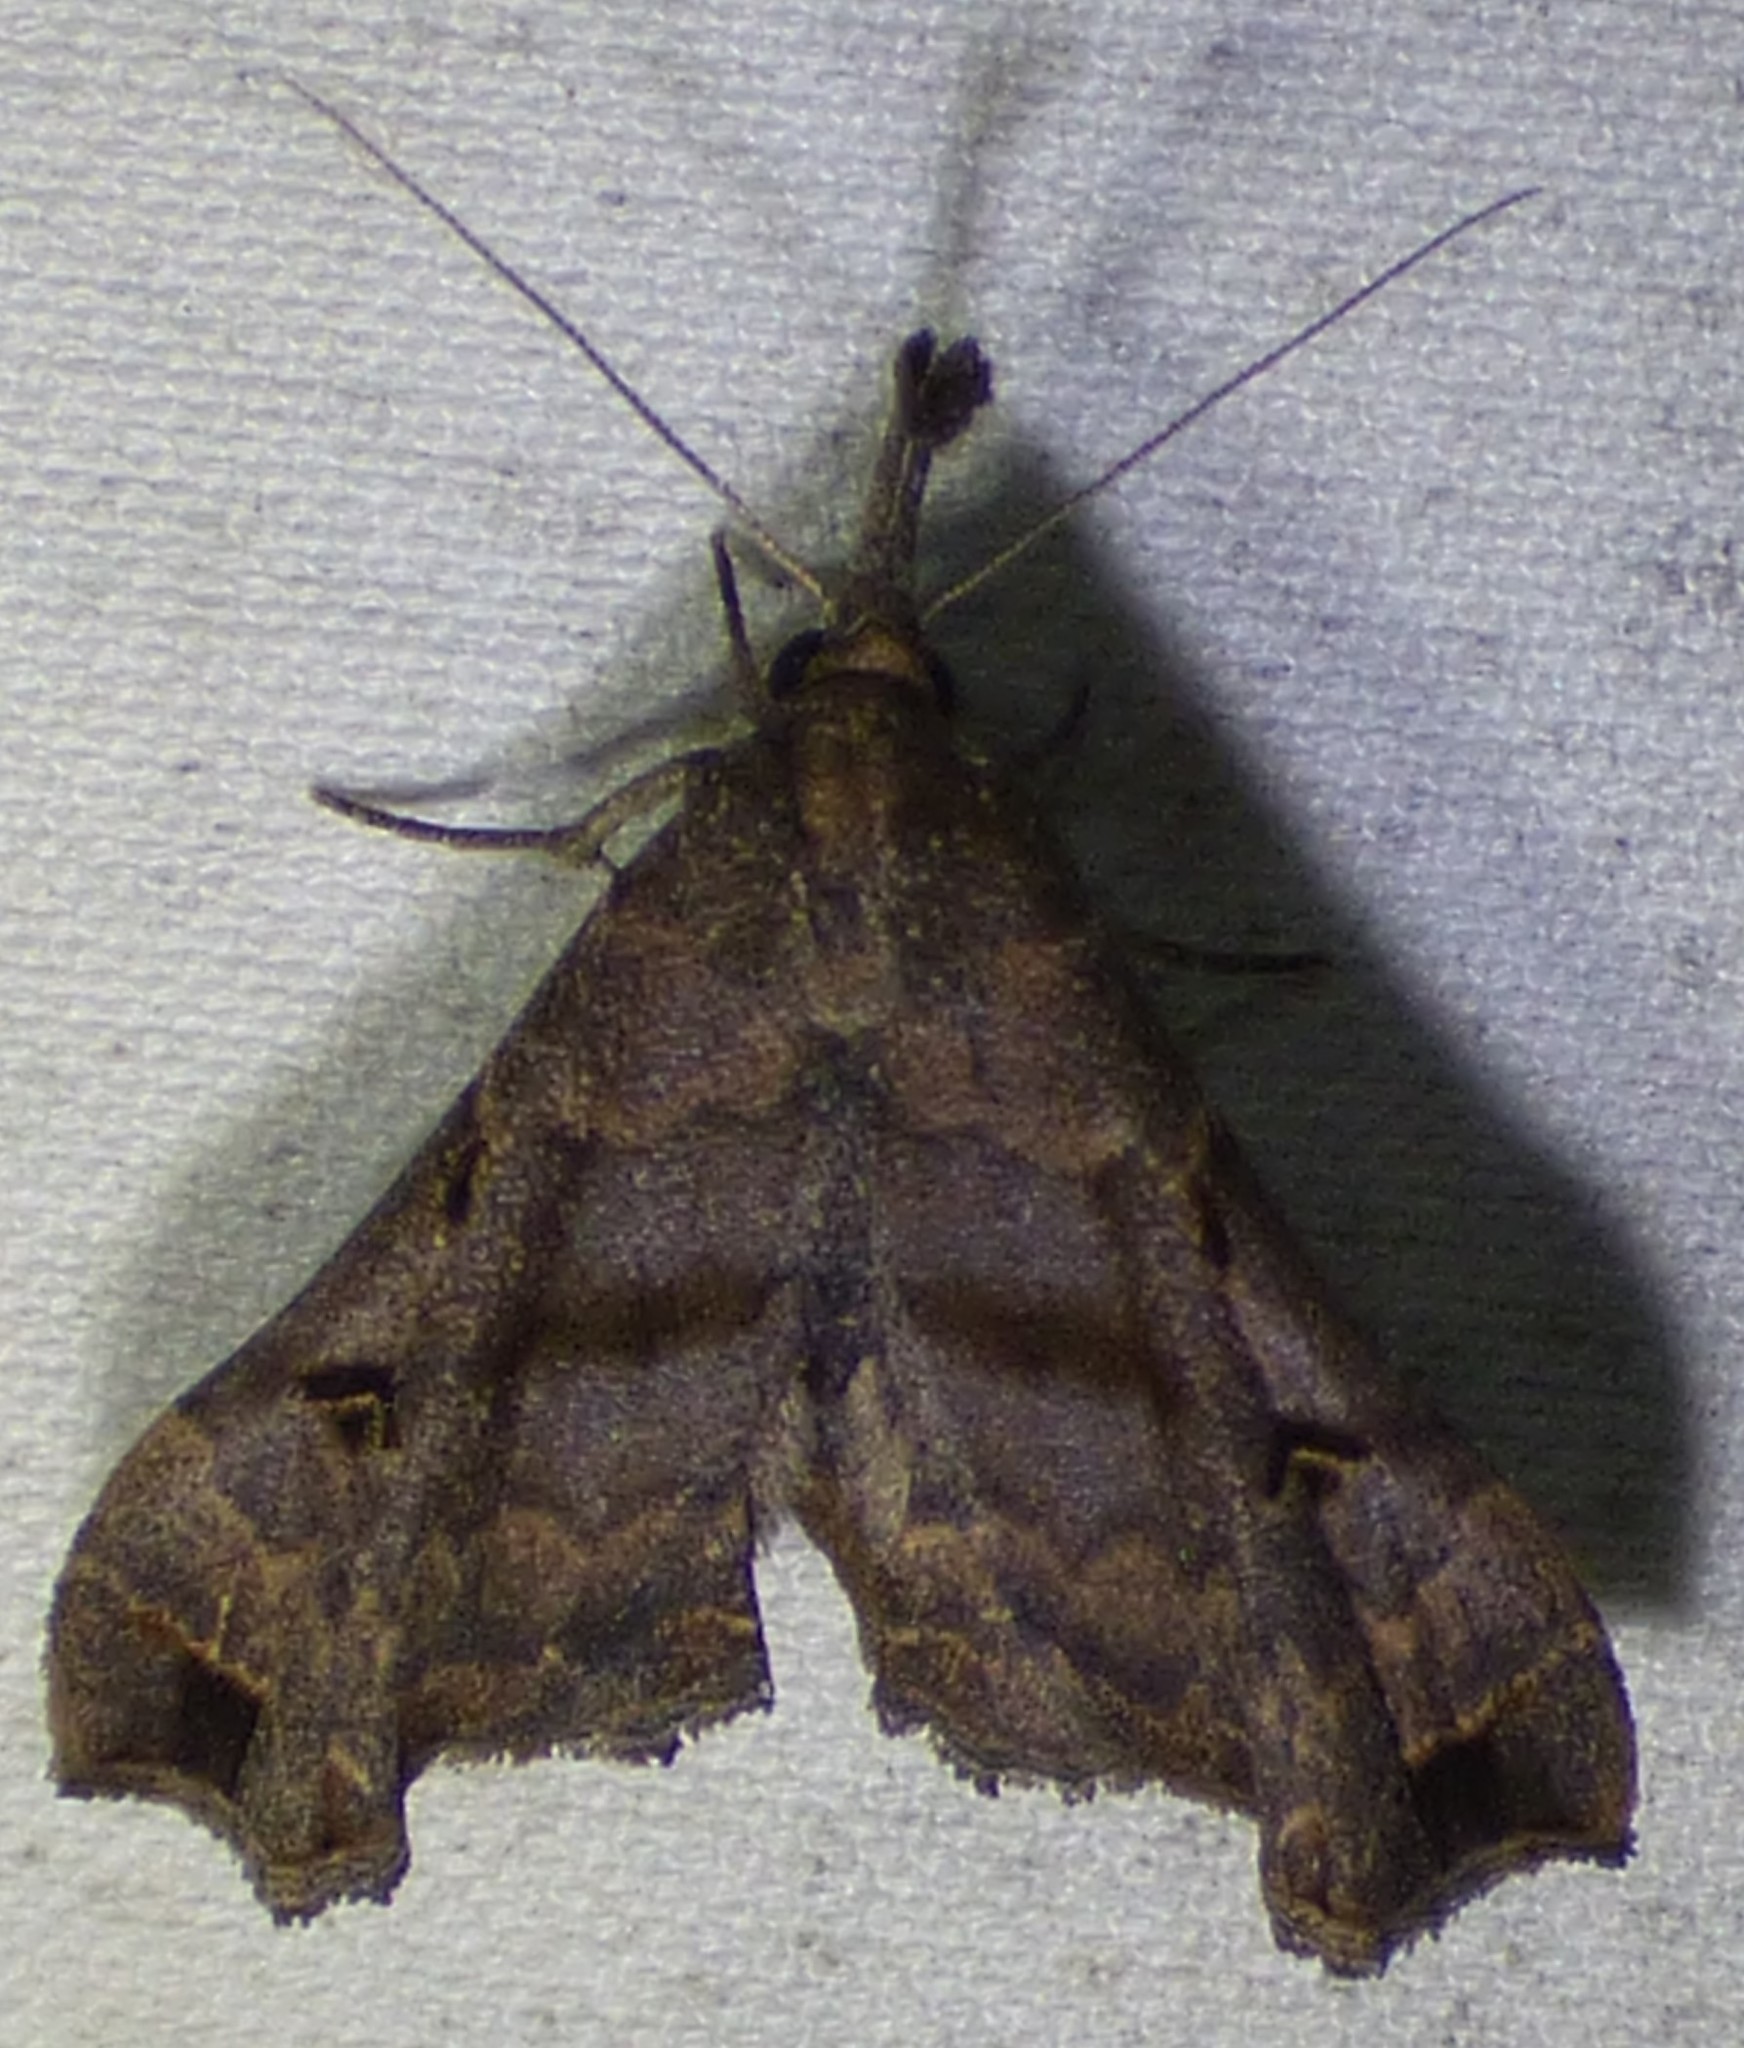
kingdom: Animalia
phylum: Arthropoda
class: Insecta
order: Lepidoptera
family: Erebidae
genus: Palthis
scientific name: Palthis asopialis
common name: Faint-spotted palthis moth
